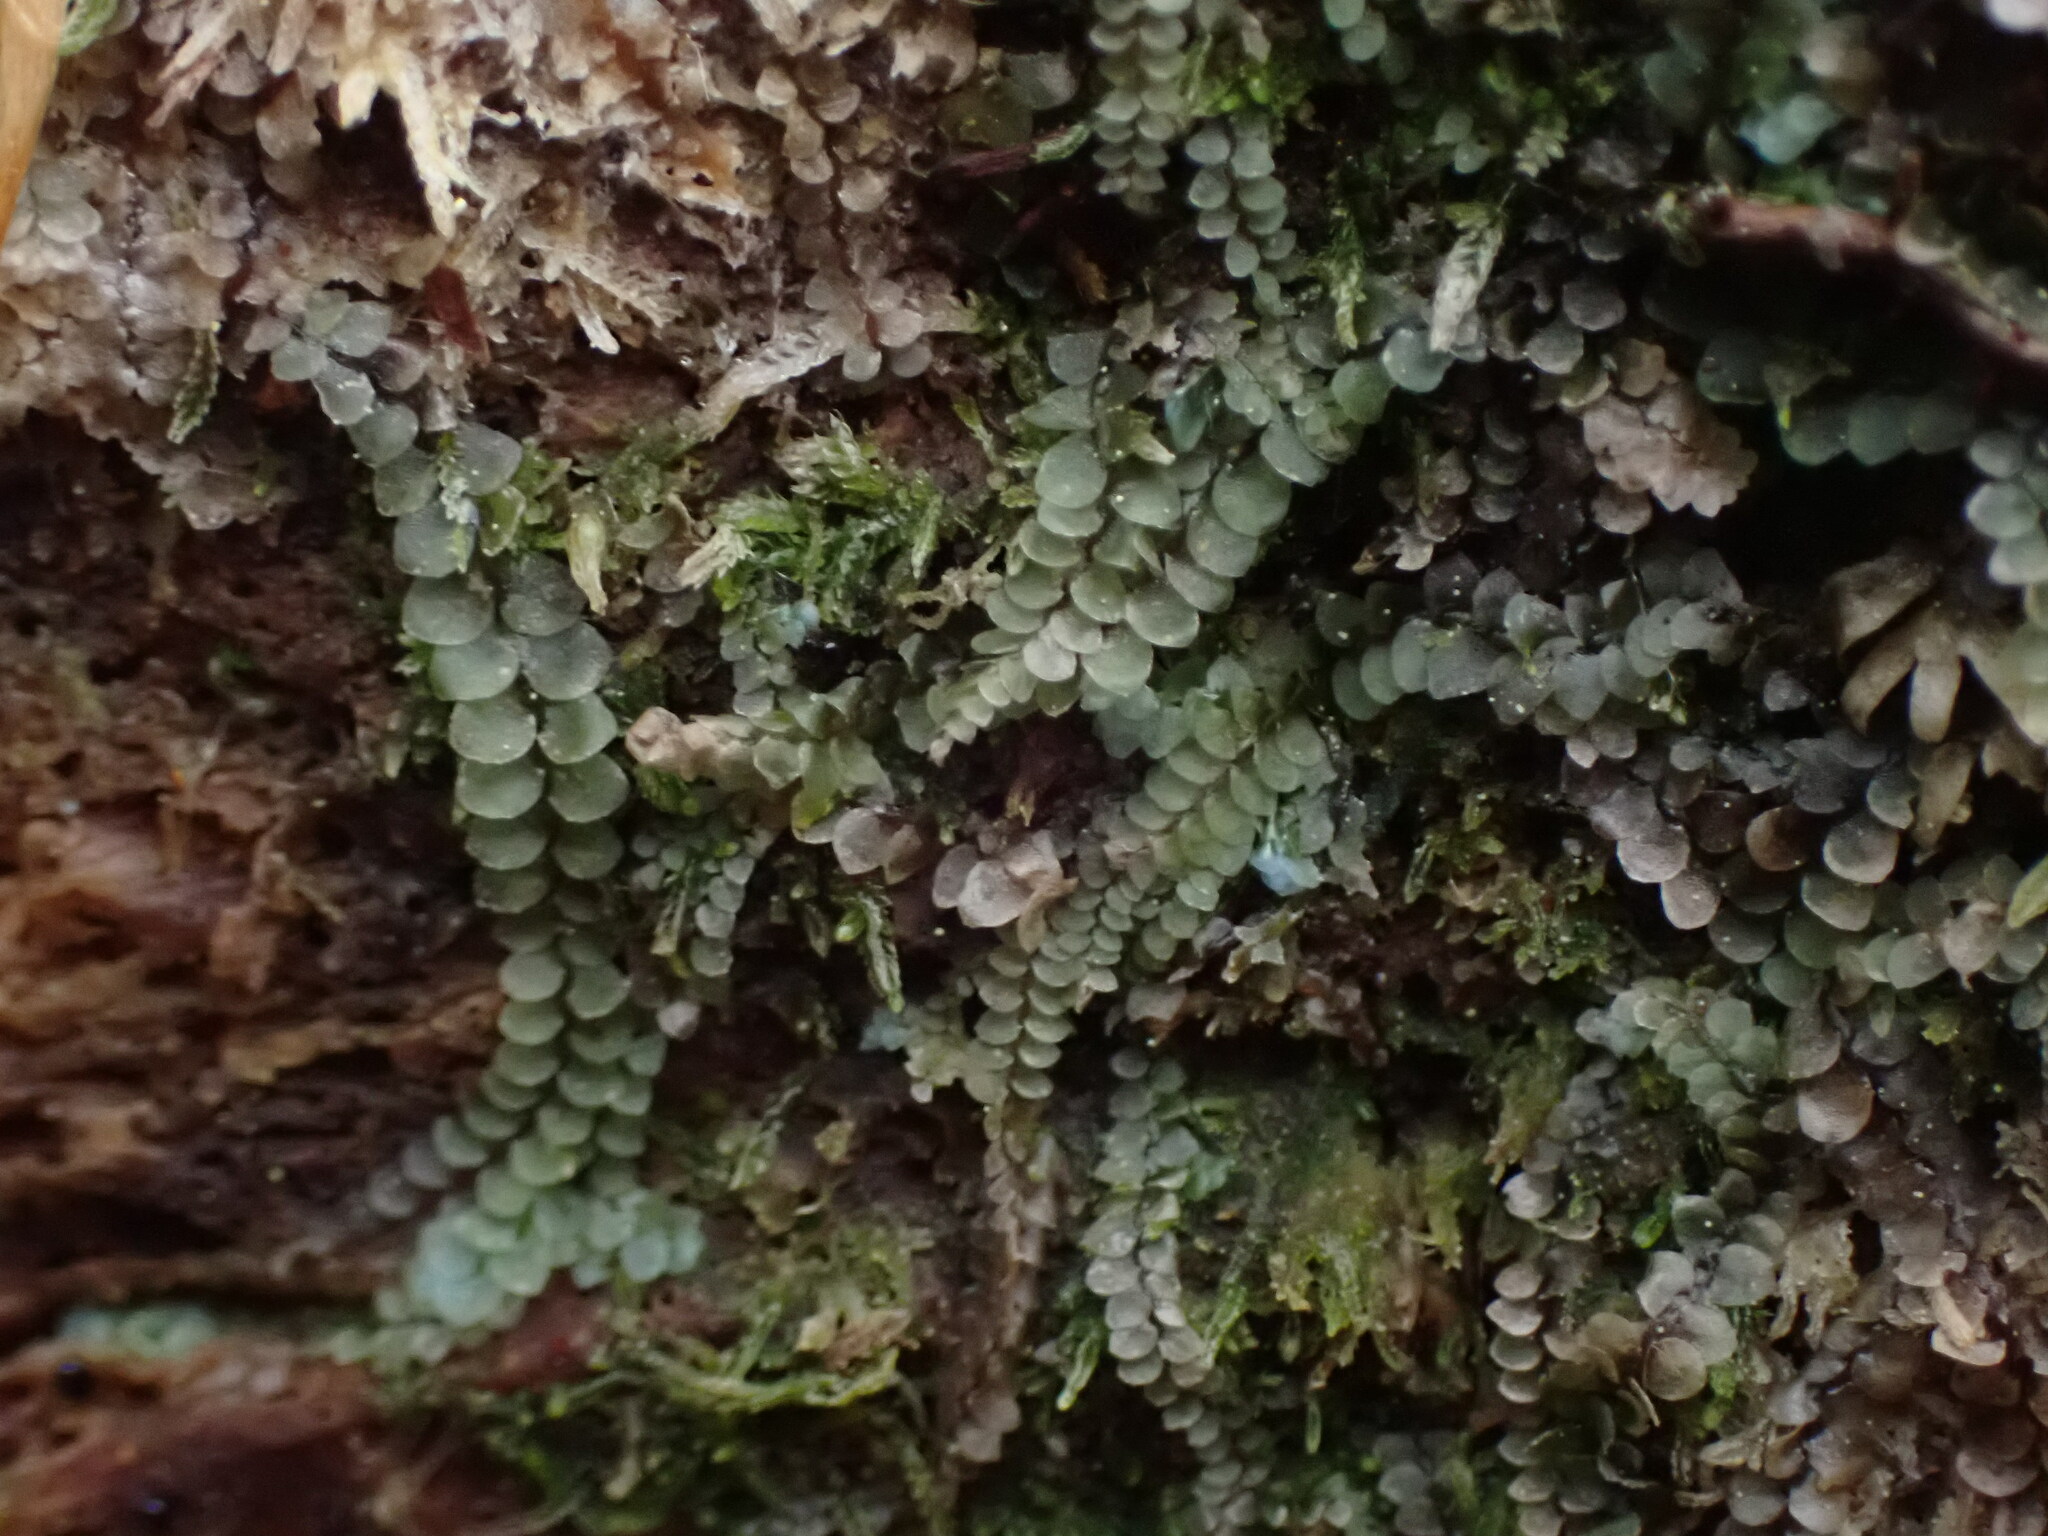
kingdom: Plantae
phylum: Marchantiophyta
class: Jungermanniopsida
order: Jungermanniales
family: Calypogeiaceae
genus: Calypogeia
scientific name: Calypogeia azurea
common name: Blue pouchwort
